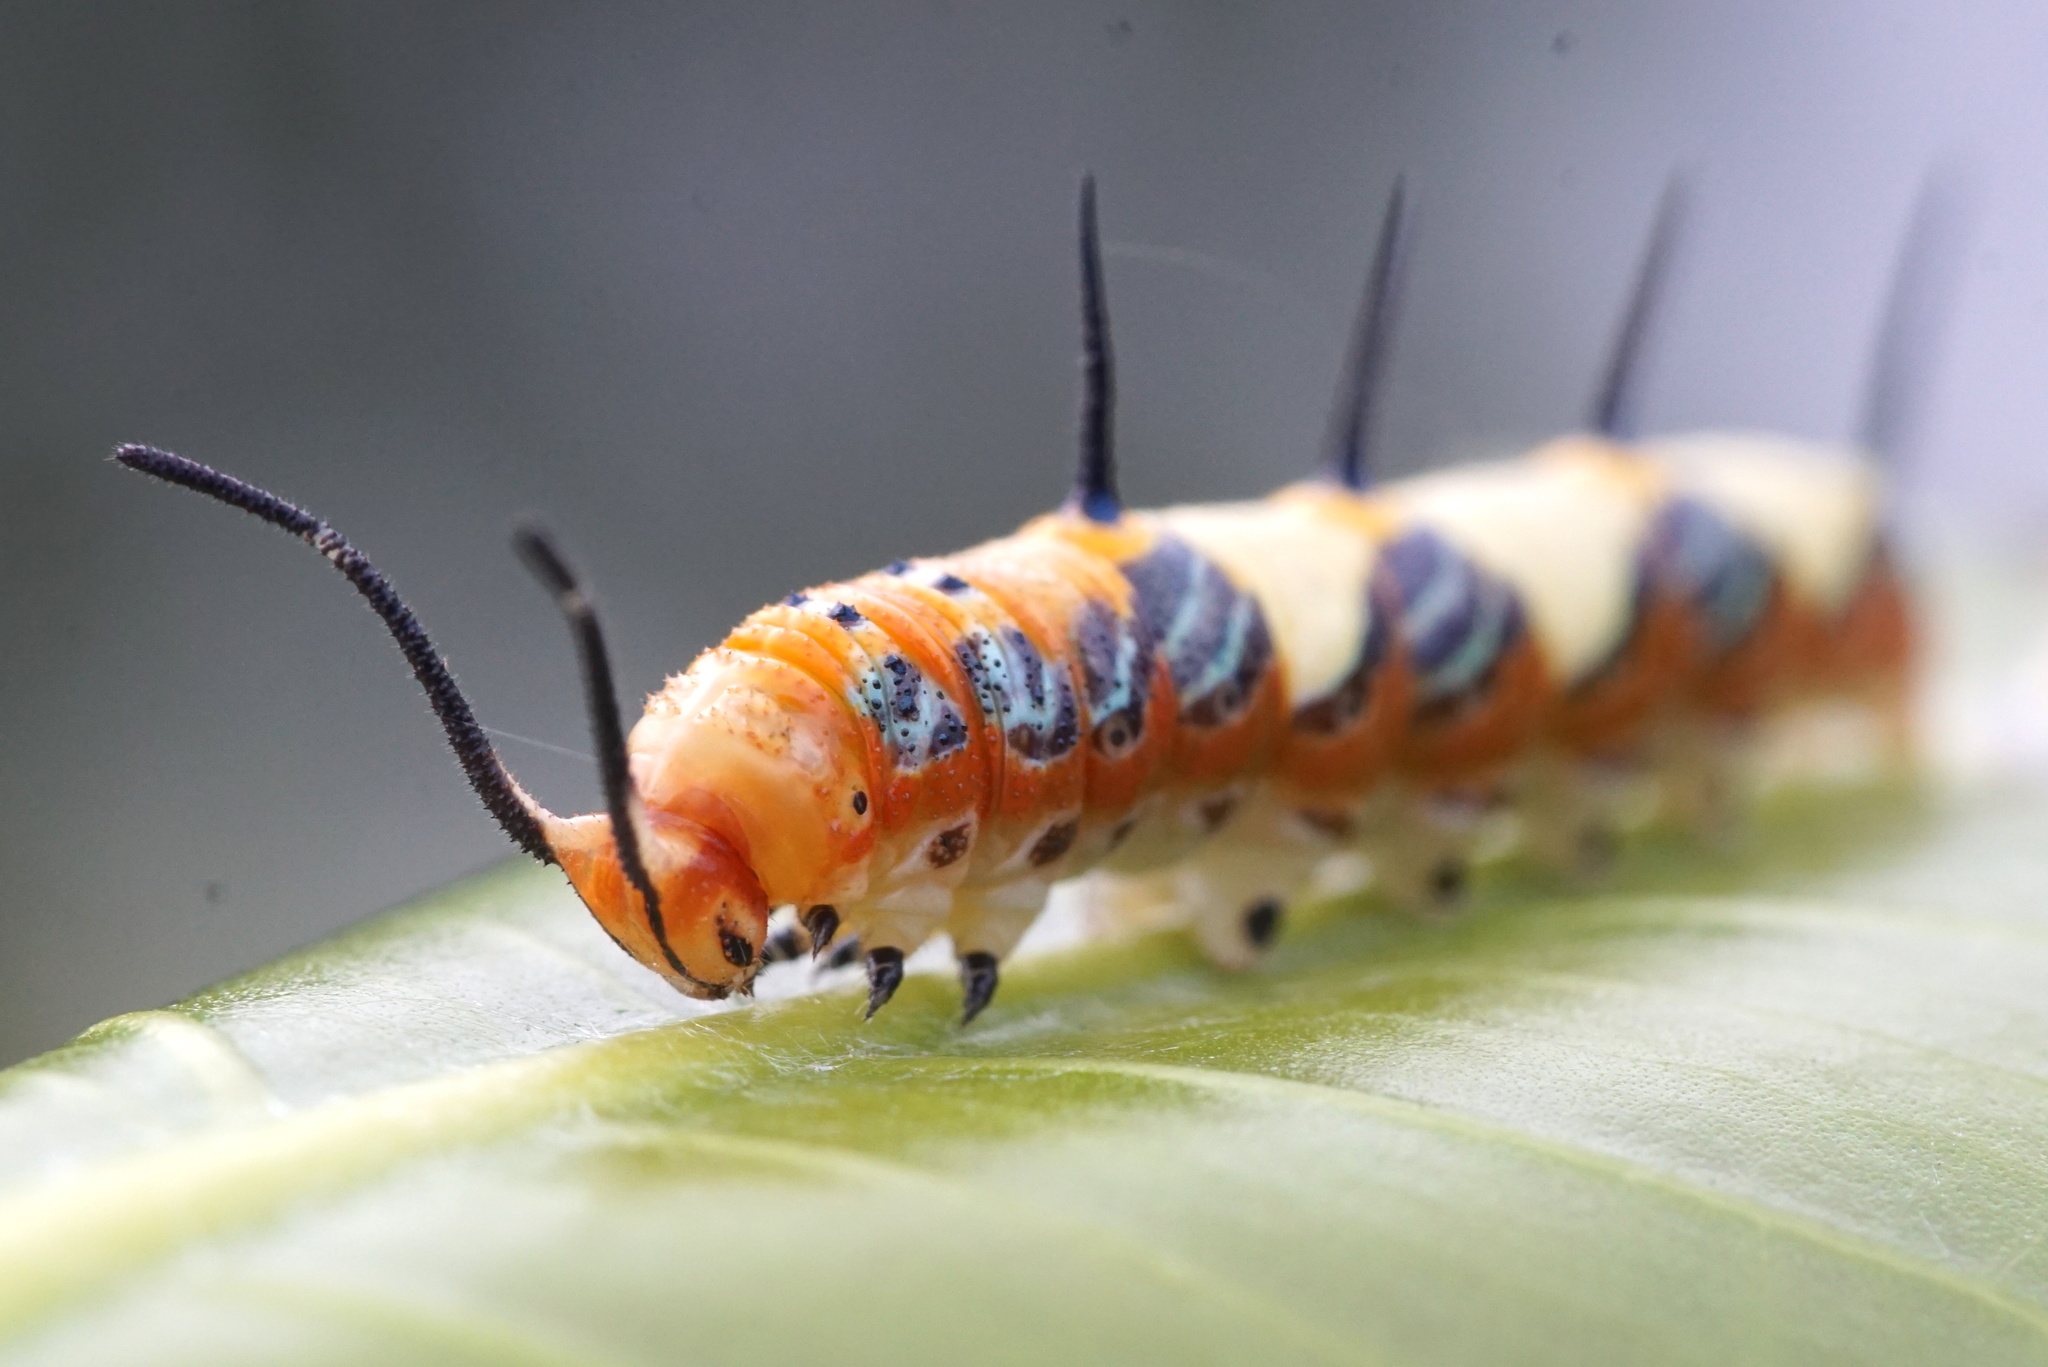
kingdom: Animalia
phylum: Arthropoda
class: Insecta
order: Lepidoptera
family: Nymphalidae
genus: Marpesia
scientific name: Marpesia petreus
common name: Red dagger wing
